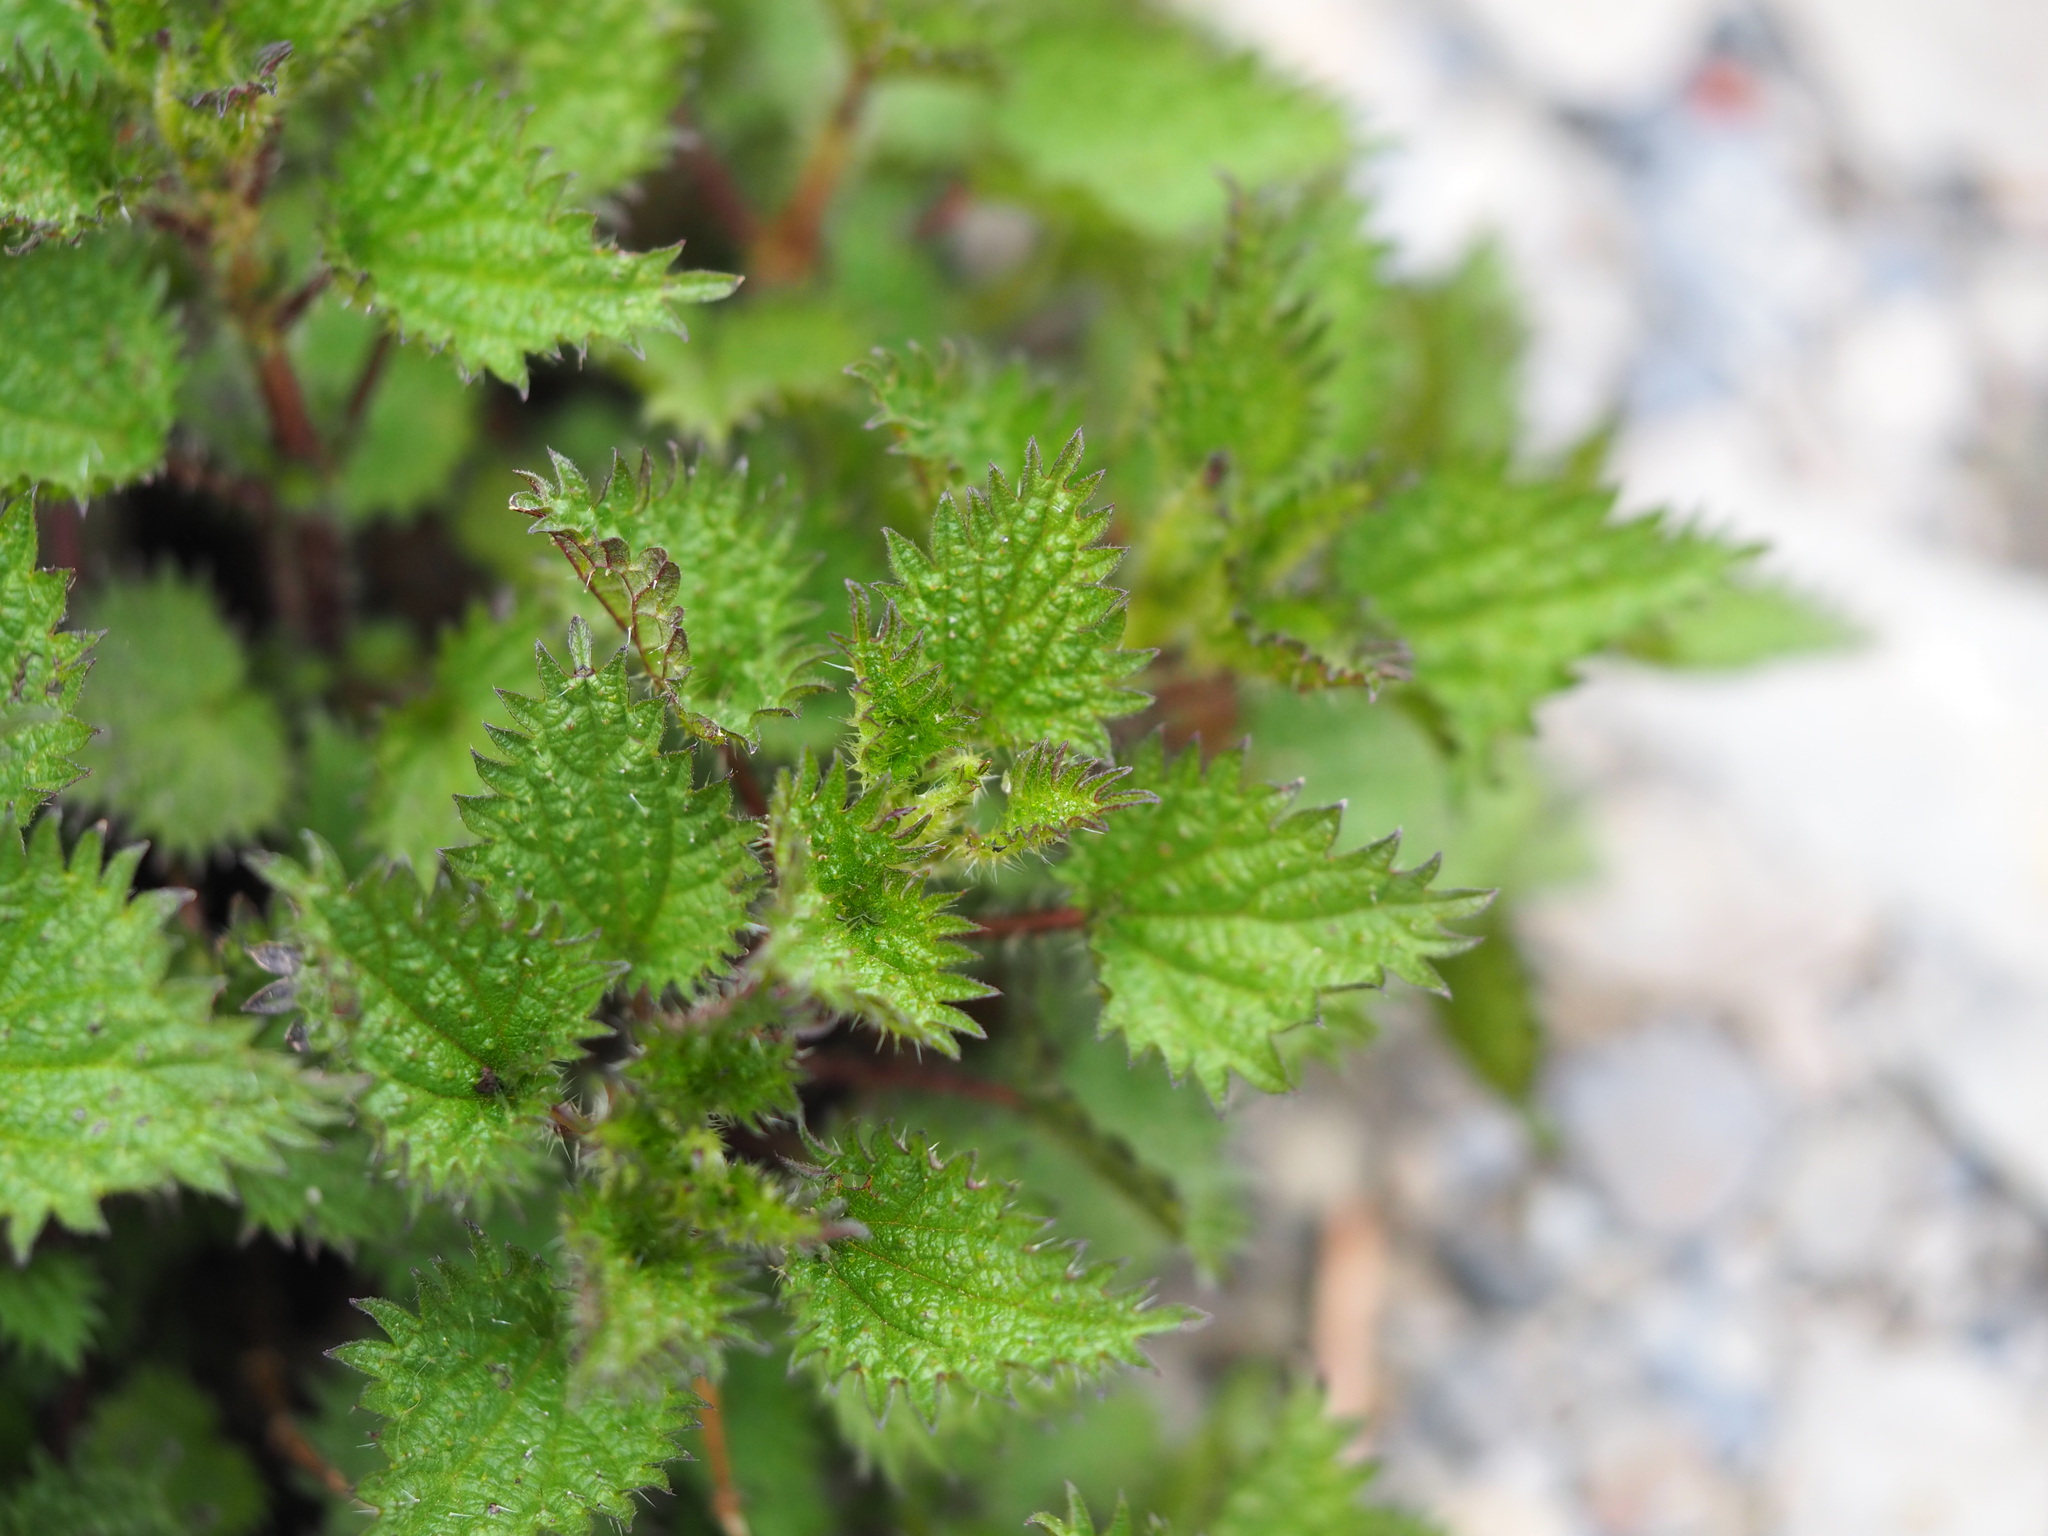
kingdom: Plantae
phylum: Tracheophyta
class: Magnoliopsida
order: Rosales
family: Urticaceae
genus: Urtica
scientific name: Urtica taiwaniana
